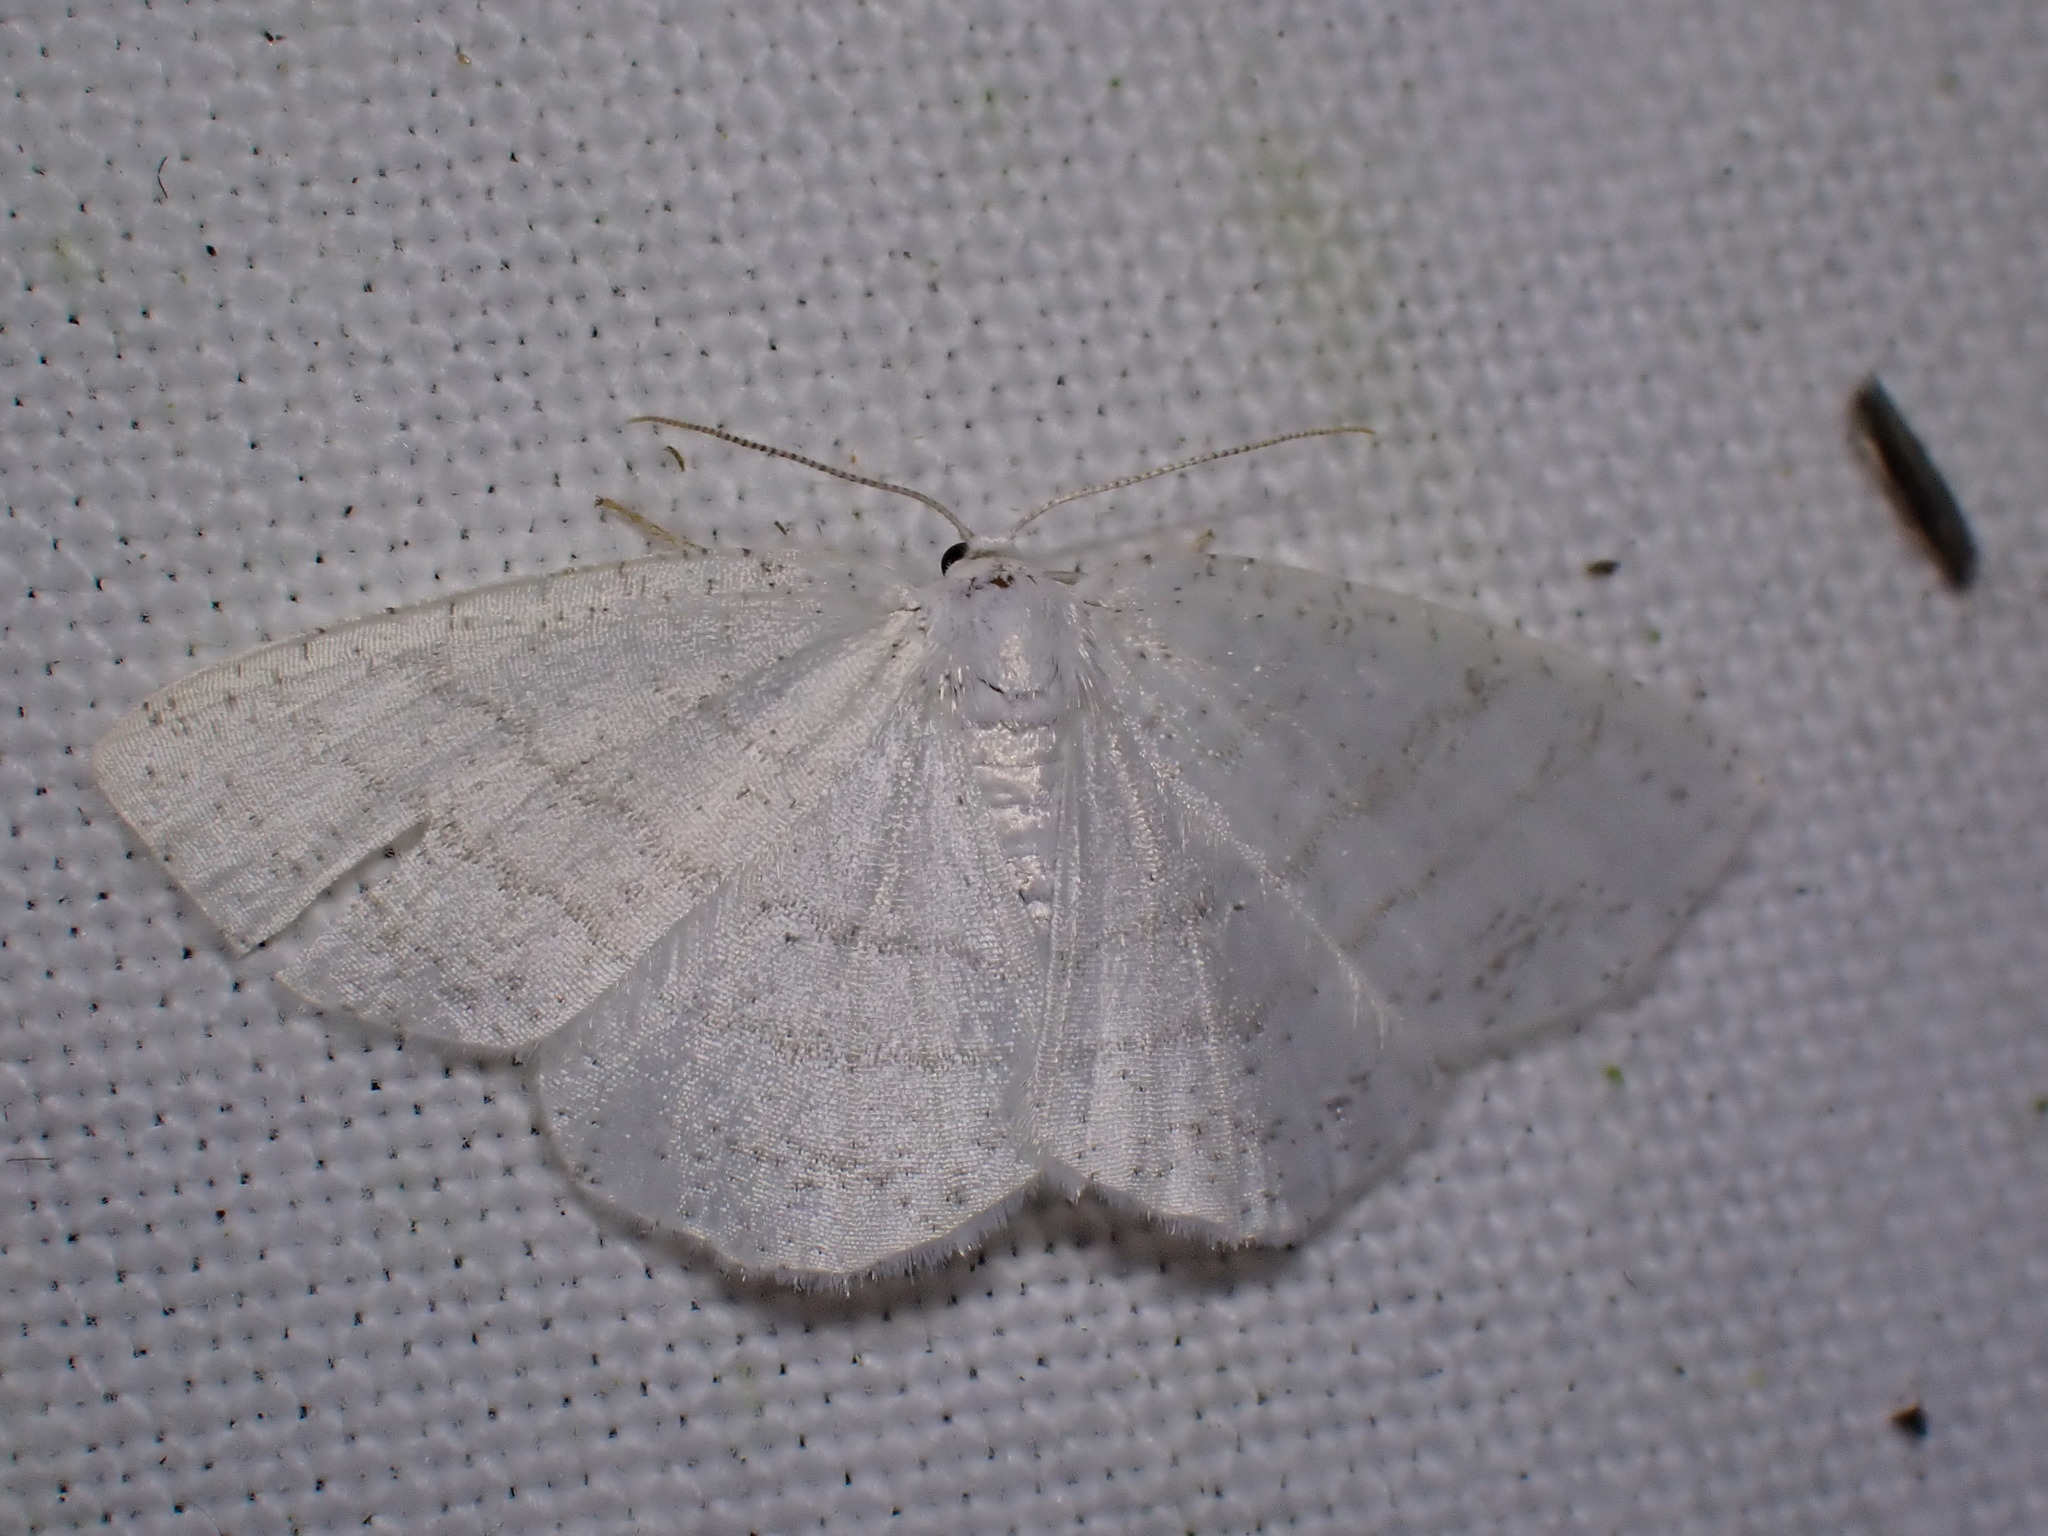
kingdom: Animalia
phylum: Arthropoda
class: Insecta
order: Lepidoptera
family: Geometridae
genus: Cabera
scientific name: Cabera pusaria
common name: Common white wave
